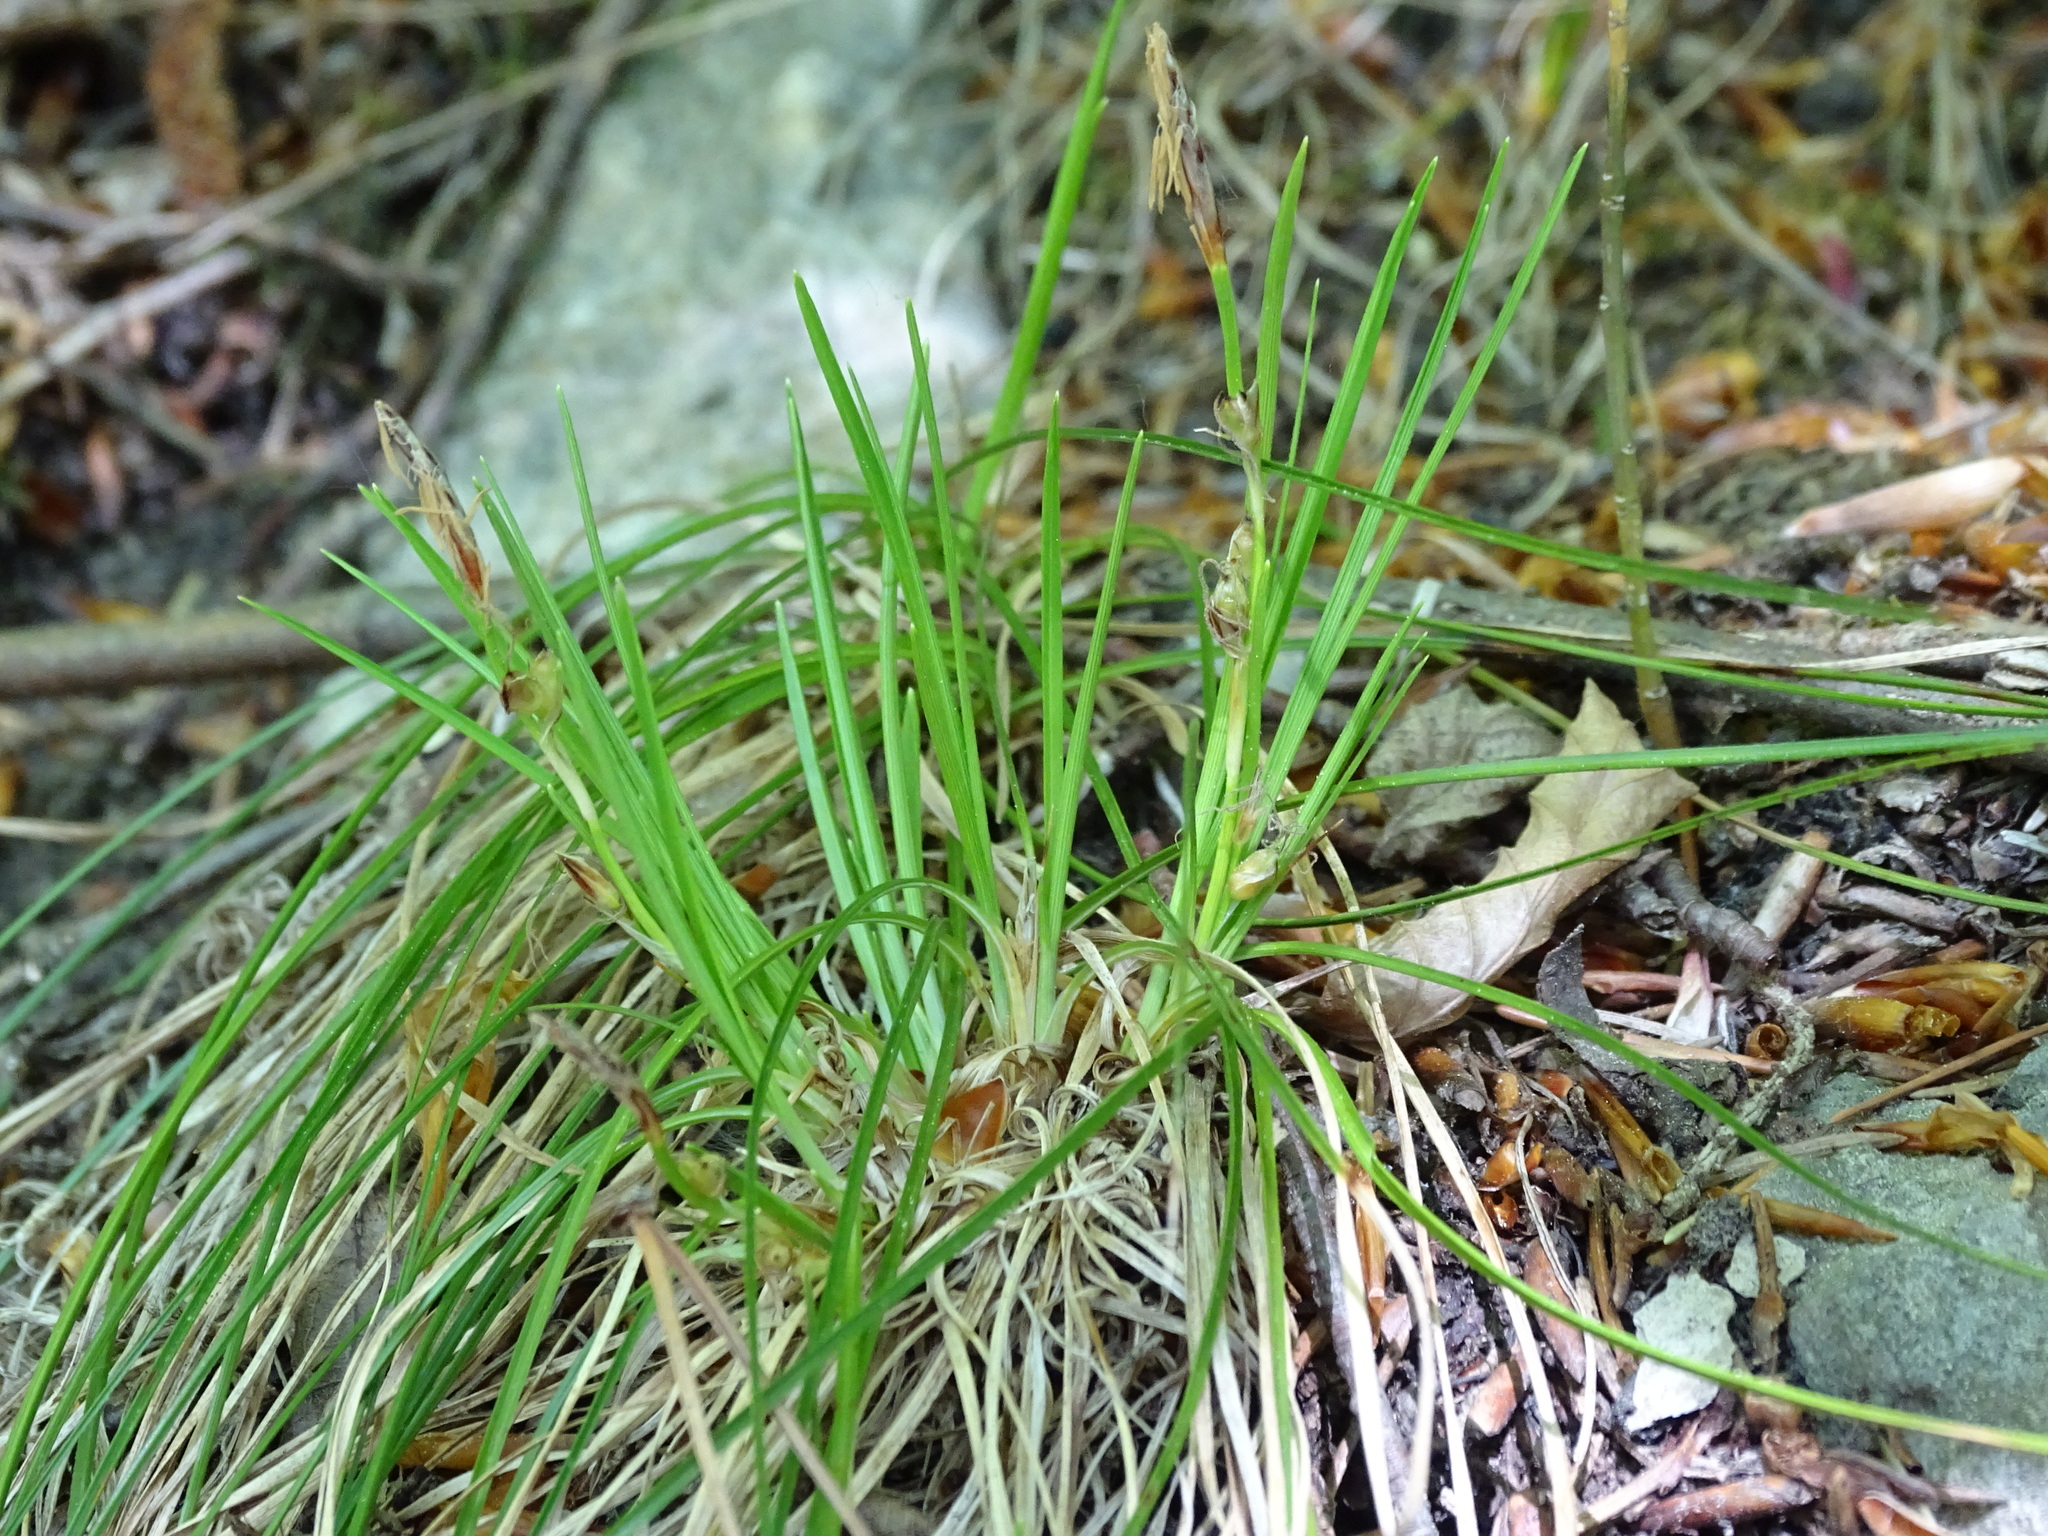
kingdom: Plantae
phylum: Tracheophyta
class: Liliopsida
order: Poales
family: Cyperaceae
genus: Carex
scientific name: Carex humilis
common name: Dwarf sedge
